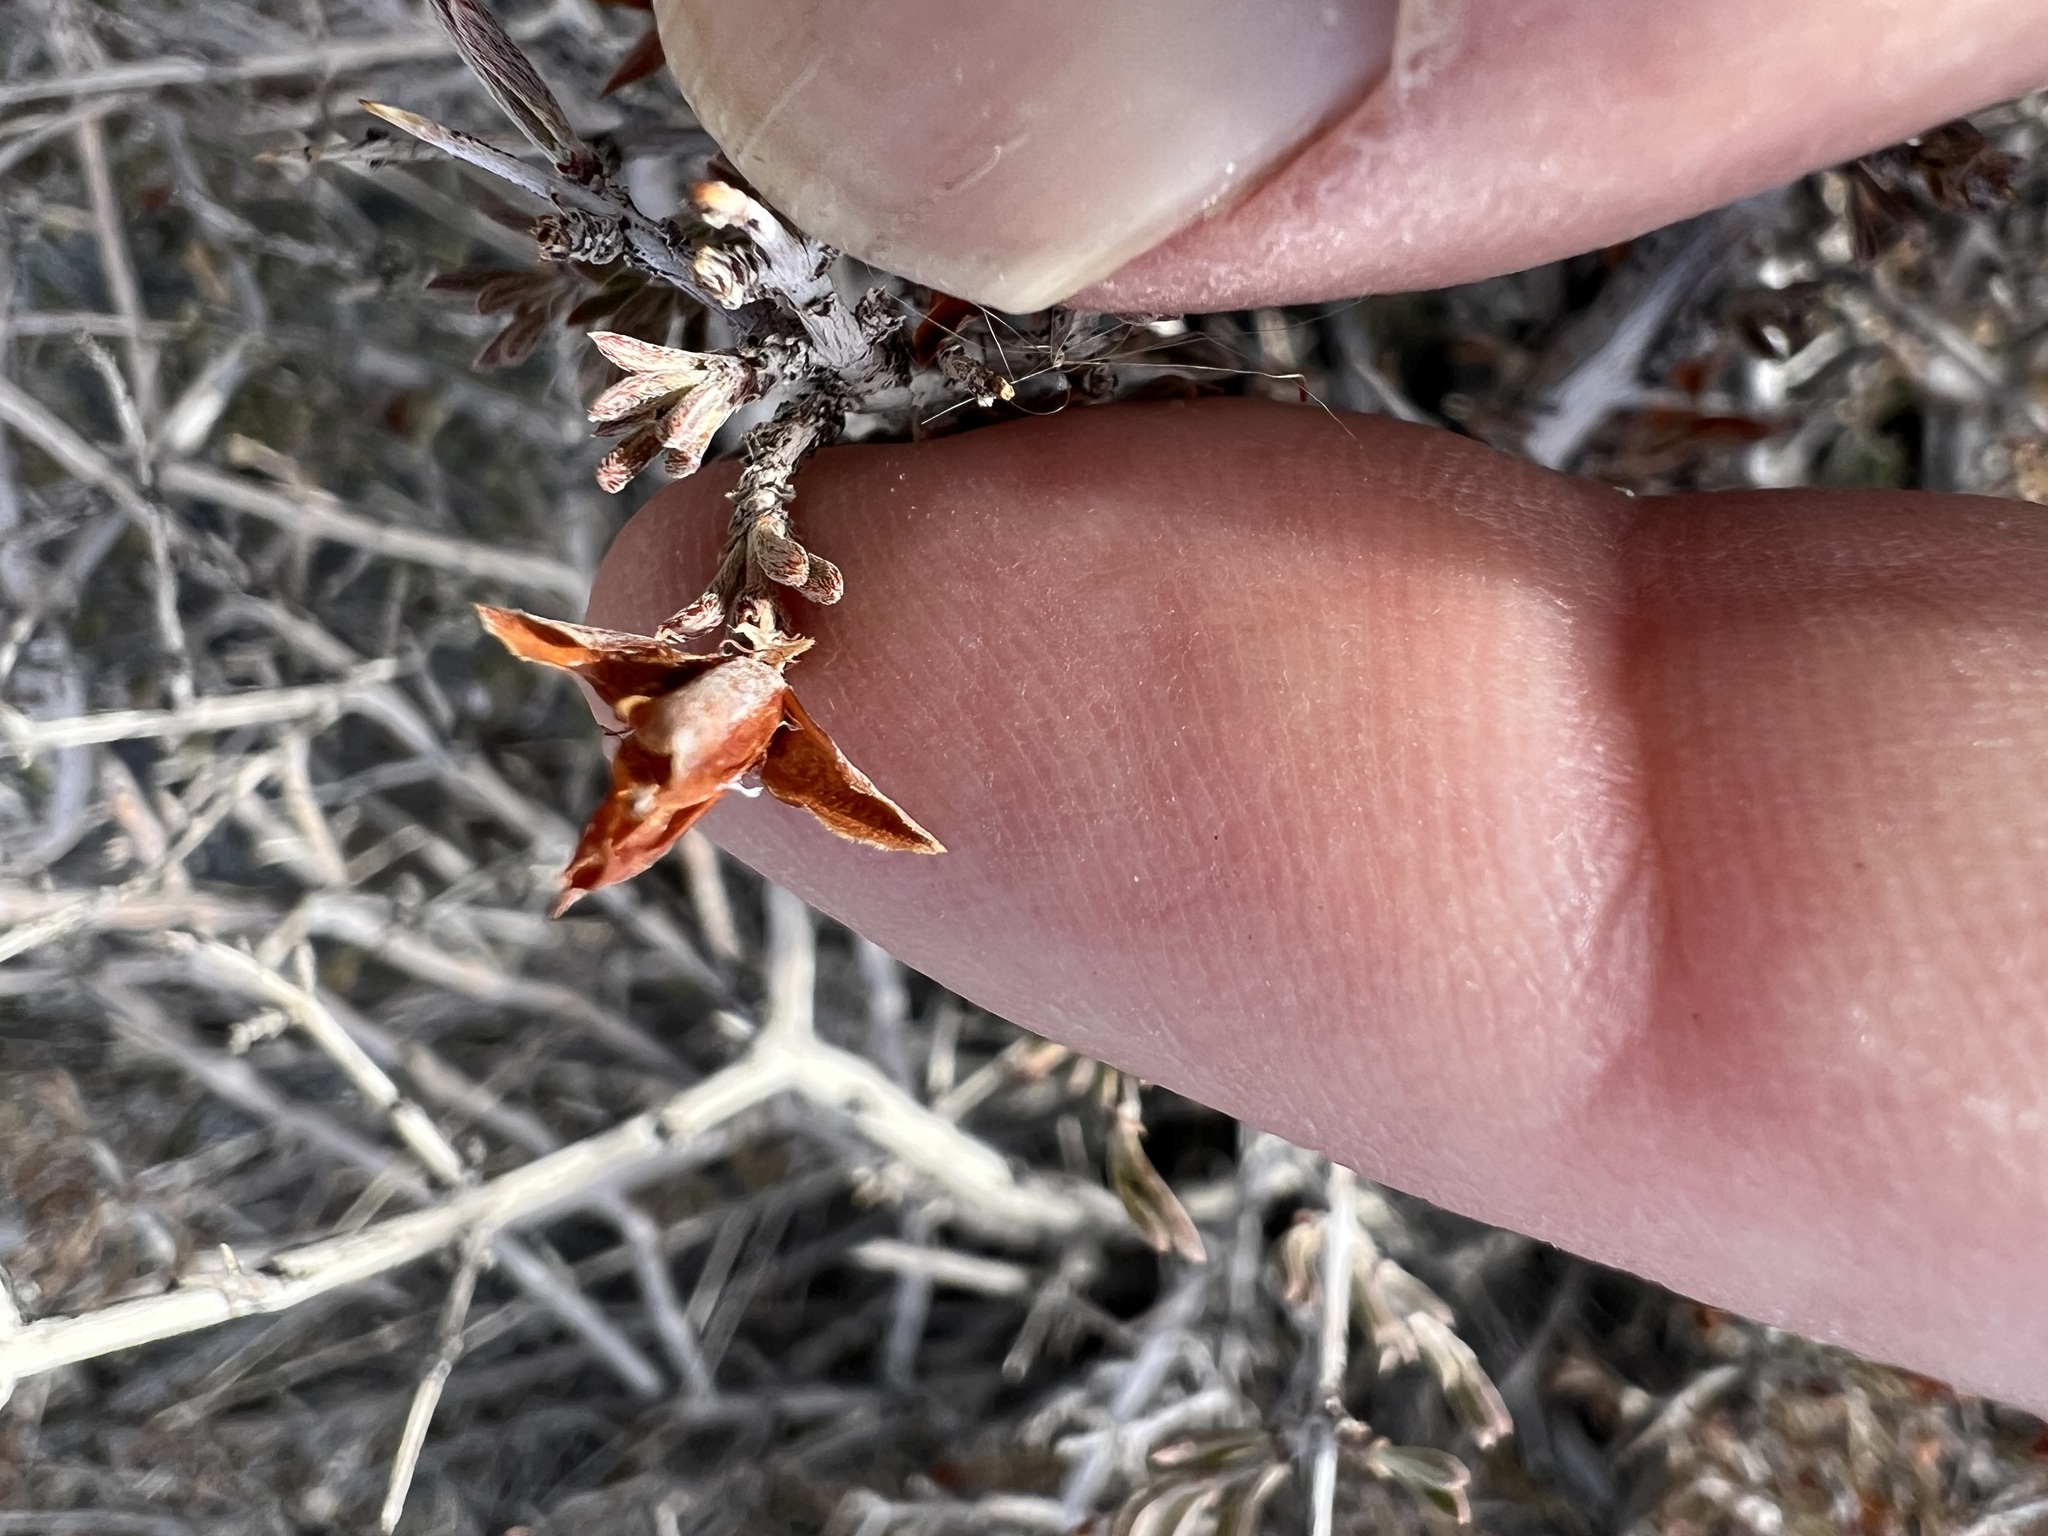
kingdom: Plantae
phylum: Tracheophyta
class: Magnoliopsida
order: Rosales
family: Rosaceae
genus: Coleogyne
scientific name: Coleogyne ramosissima
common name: Blackbrush
